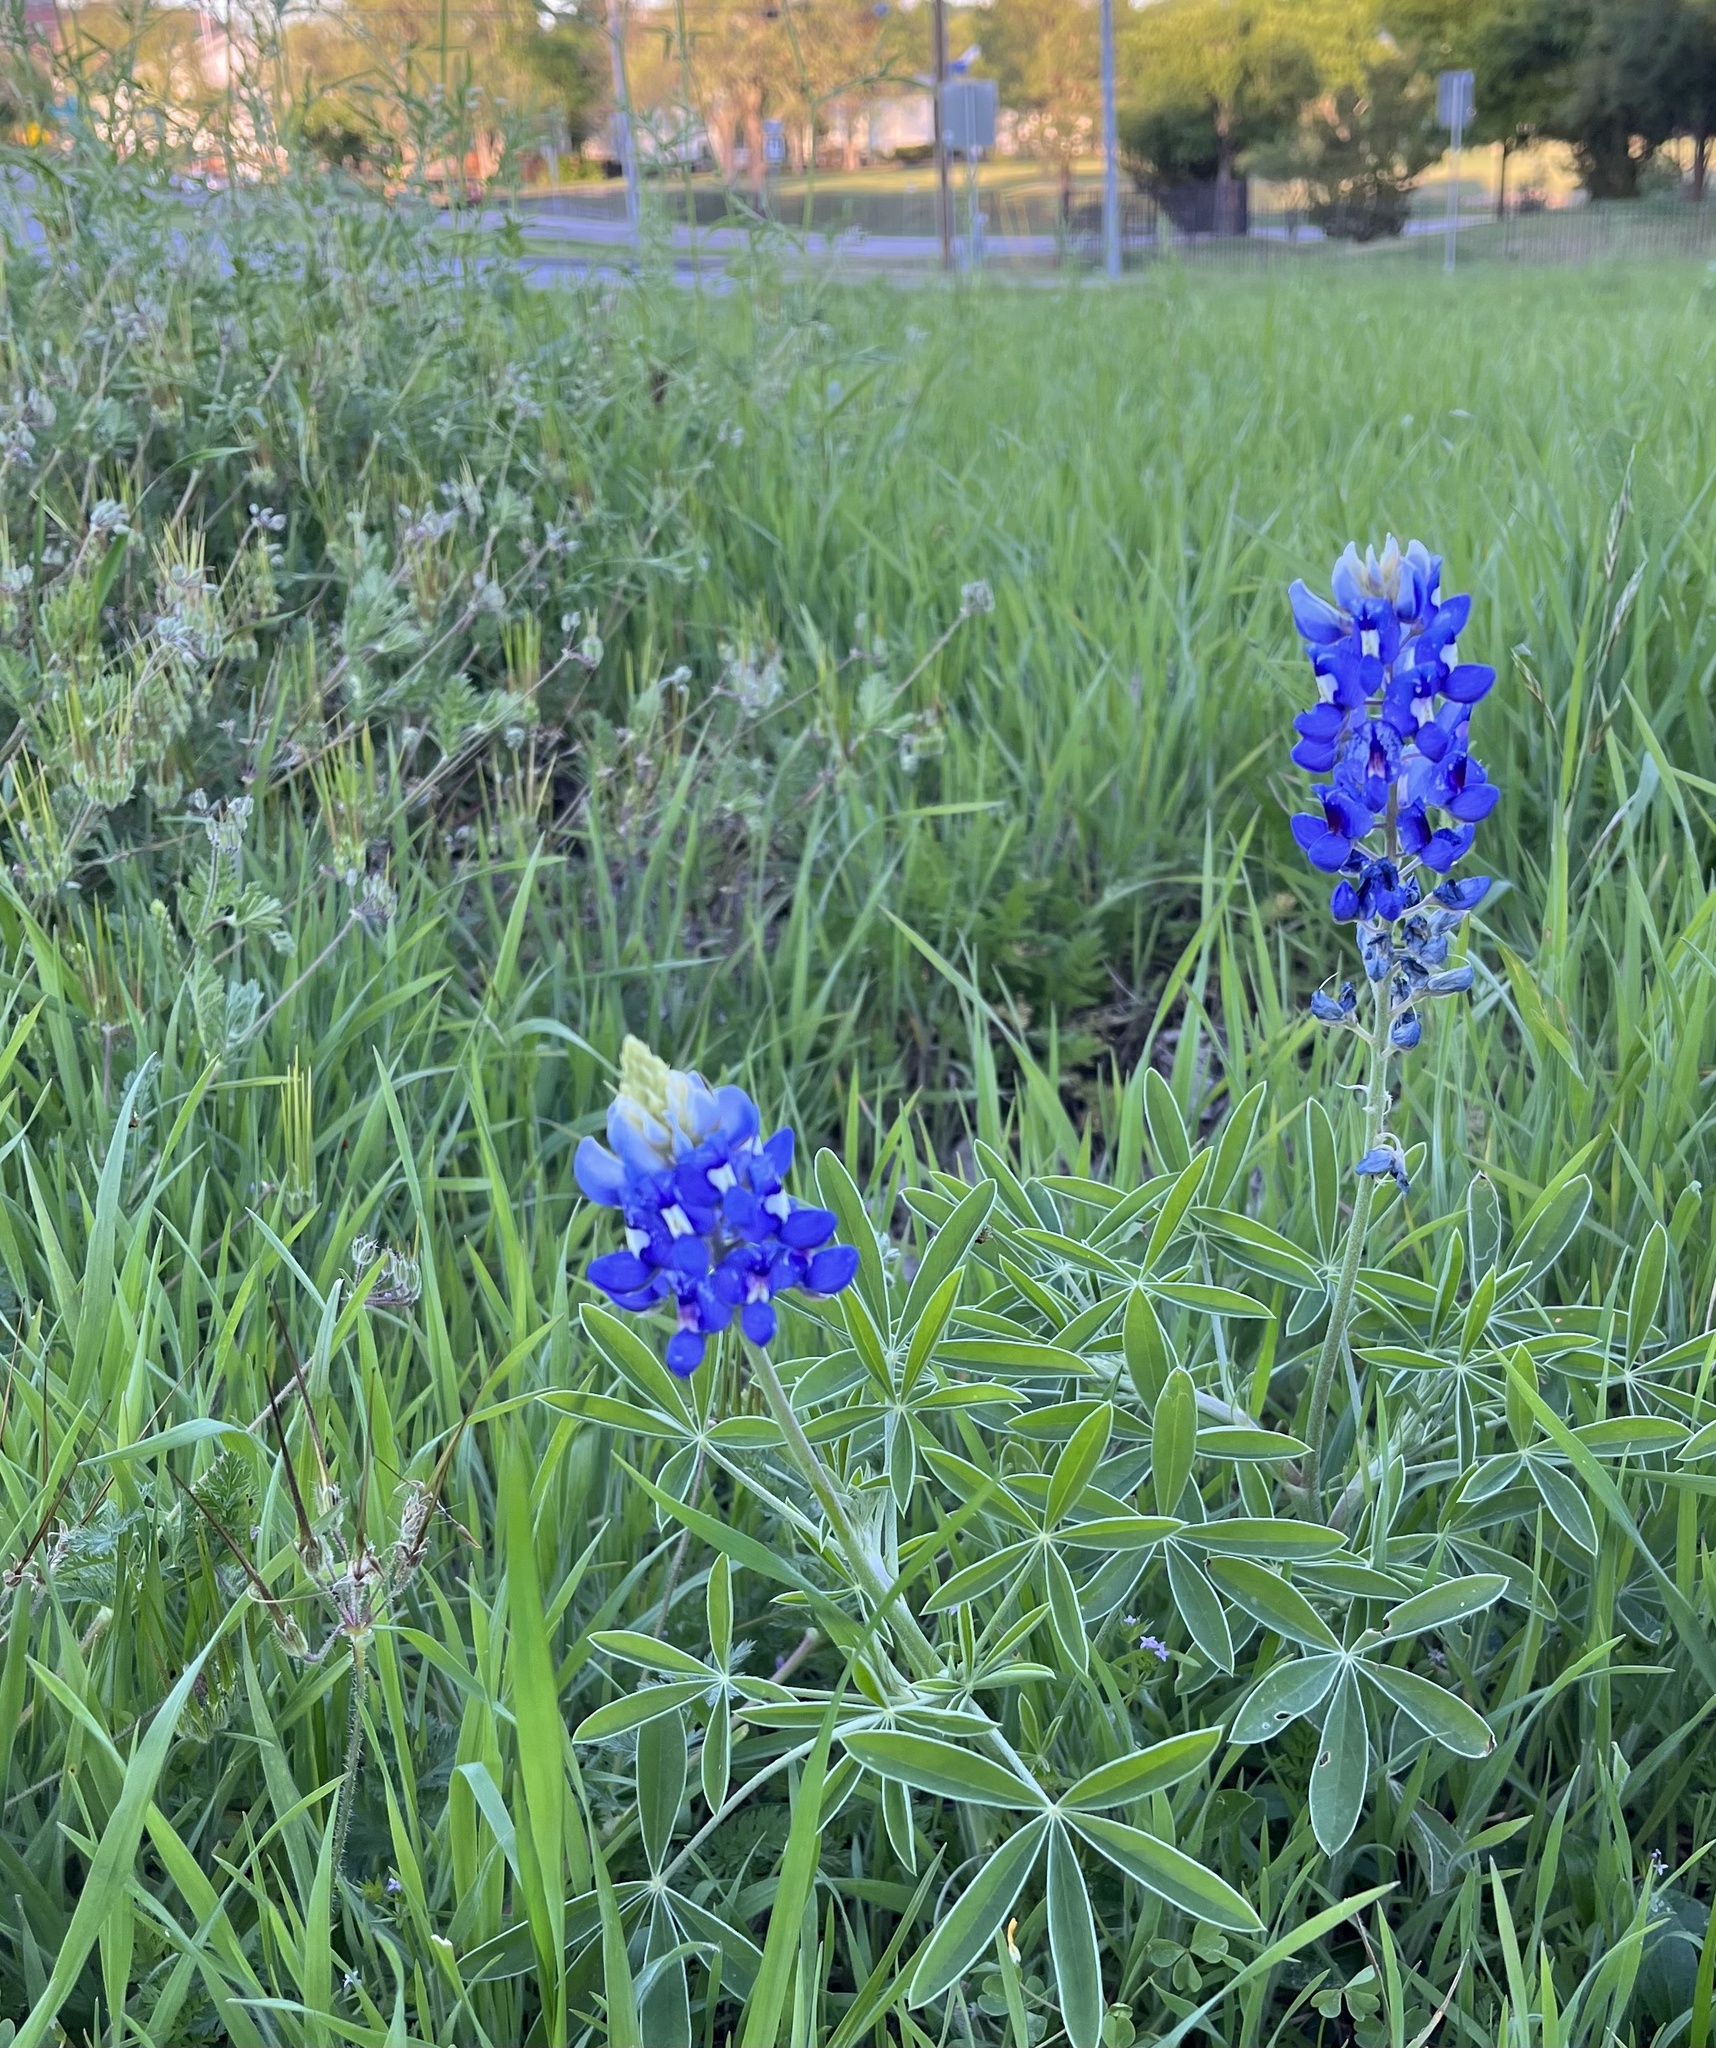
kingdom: Plantae
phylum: Tracheophyta
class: Magnoliopsida
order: Fabales
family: Fabaceae
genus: Lupinus
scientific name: Lupinus texensis
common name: Texas bluebonnet
